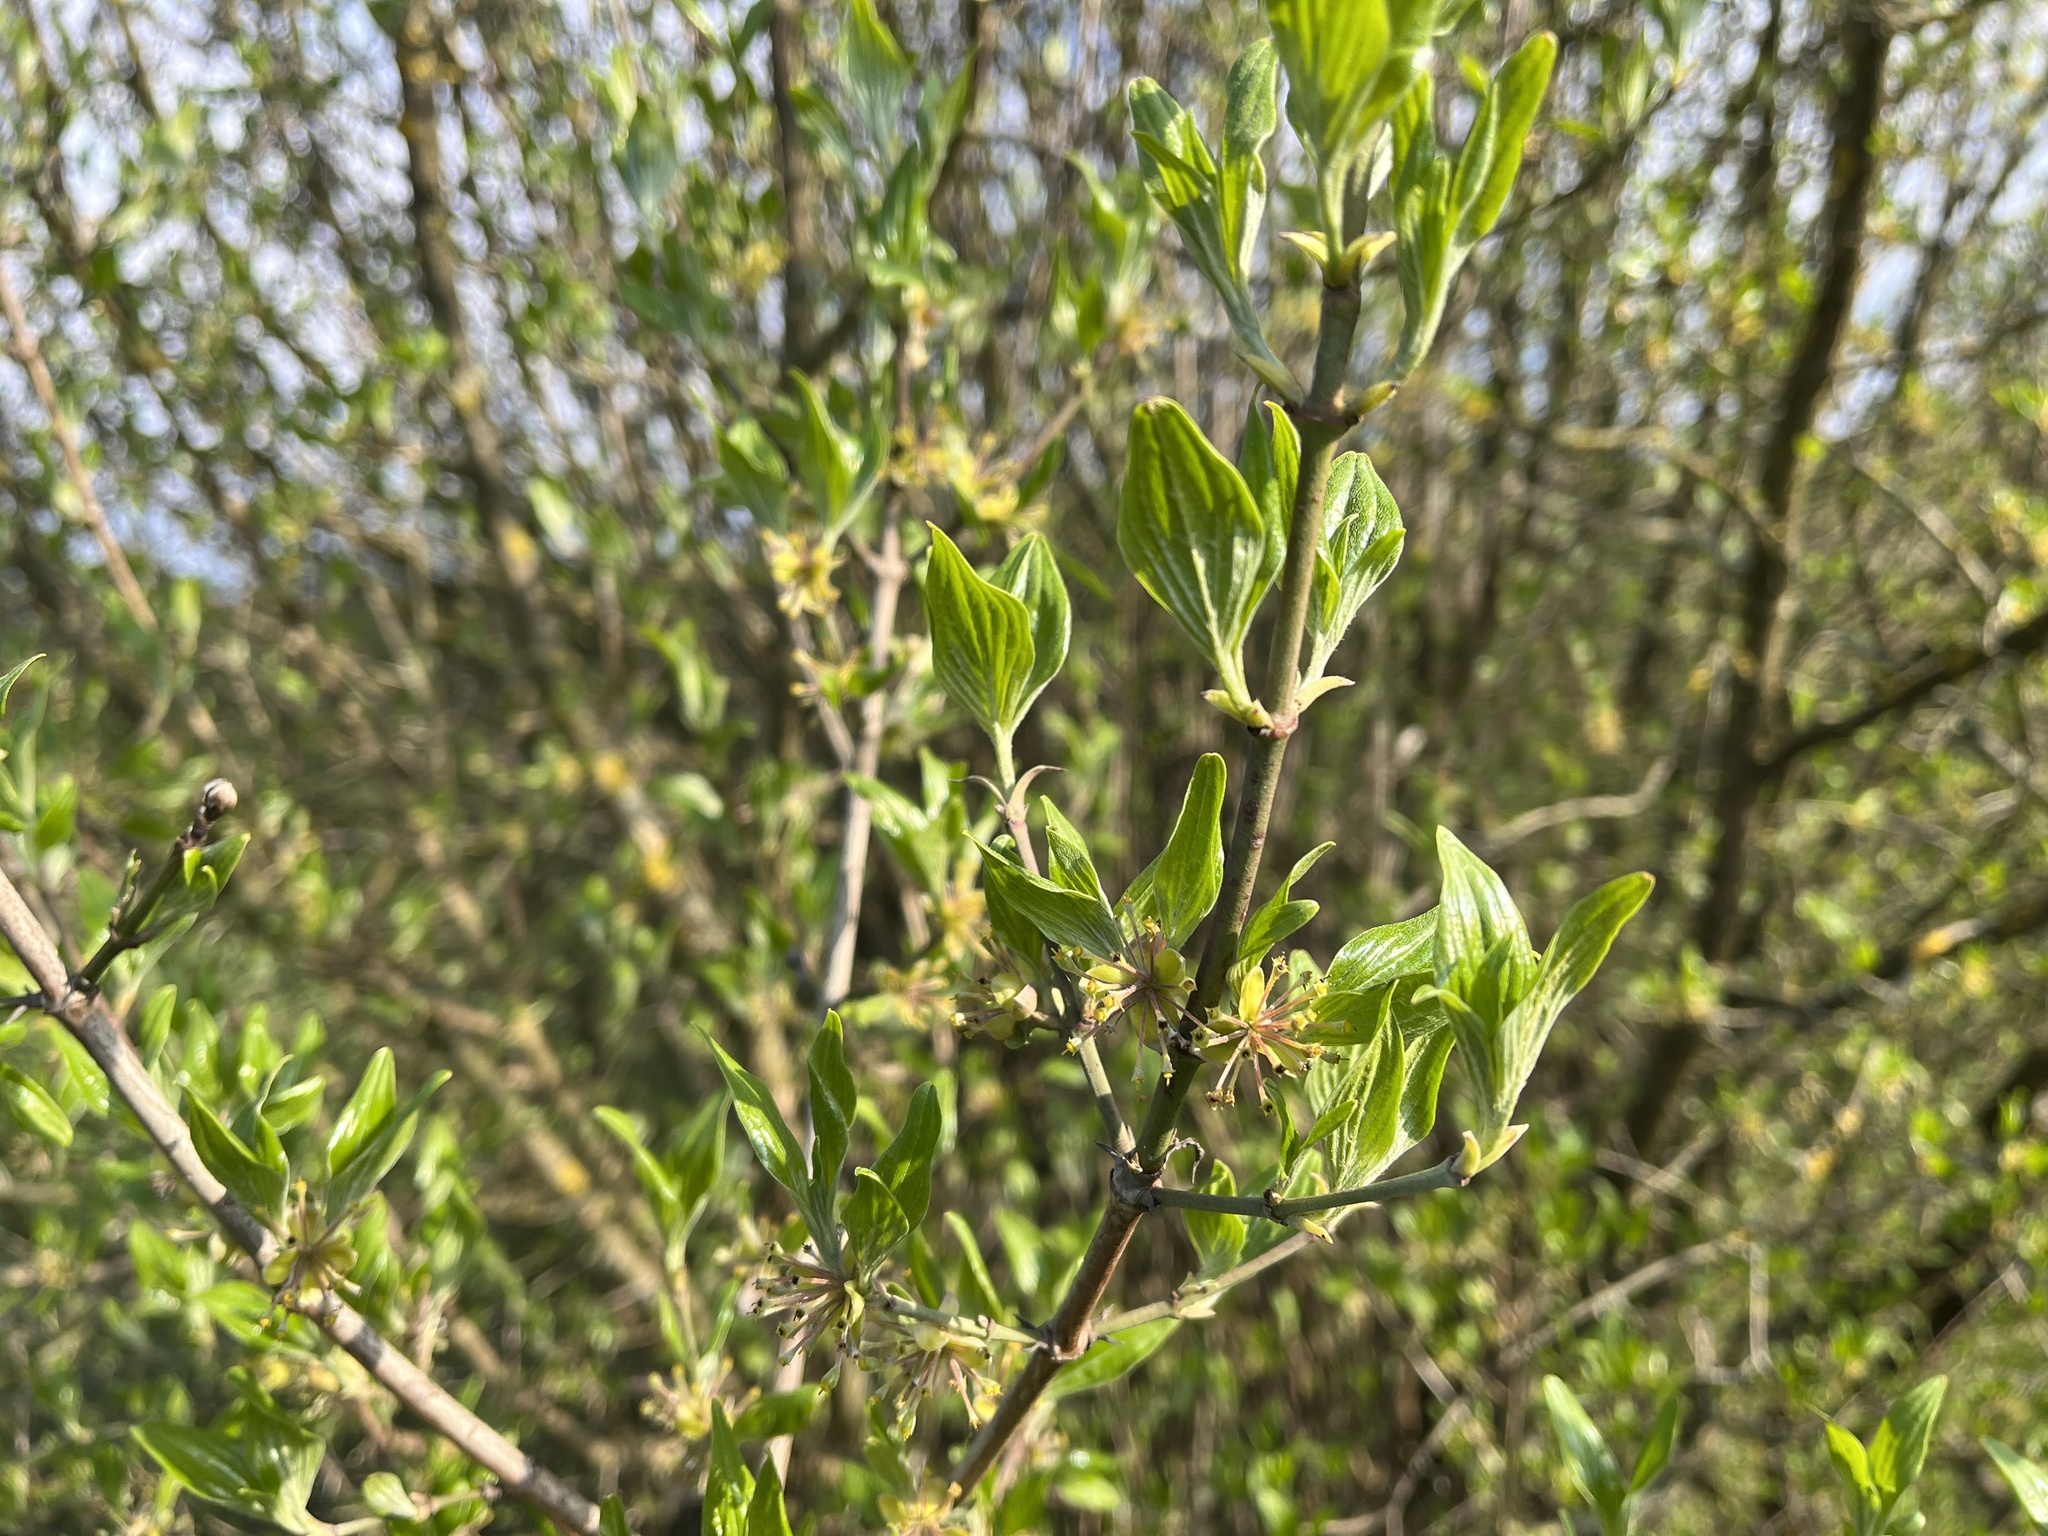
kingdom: Plantae
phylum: Tracheophyta
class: Magnoliopsida
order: Cornales
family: Cornaceae
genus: Cornus
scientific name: Cornus mas
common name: Cornelian-cherry
